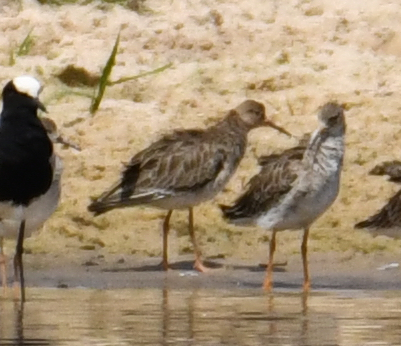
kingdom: Animalia
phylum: Chordata
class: Aves
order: Charadriiformes
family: Scolopacidae
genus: Calidris
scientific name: Calidris pugnax
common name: Ruff
